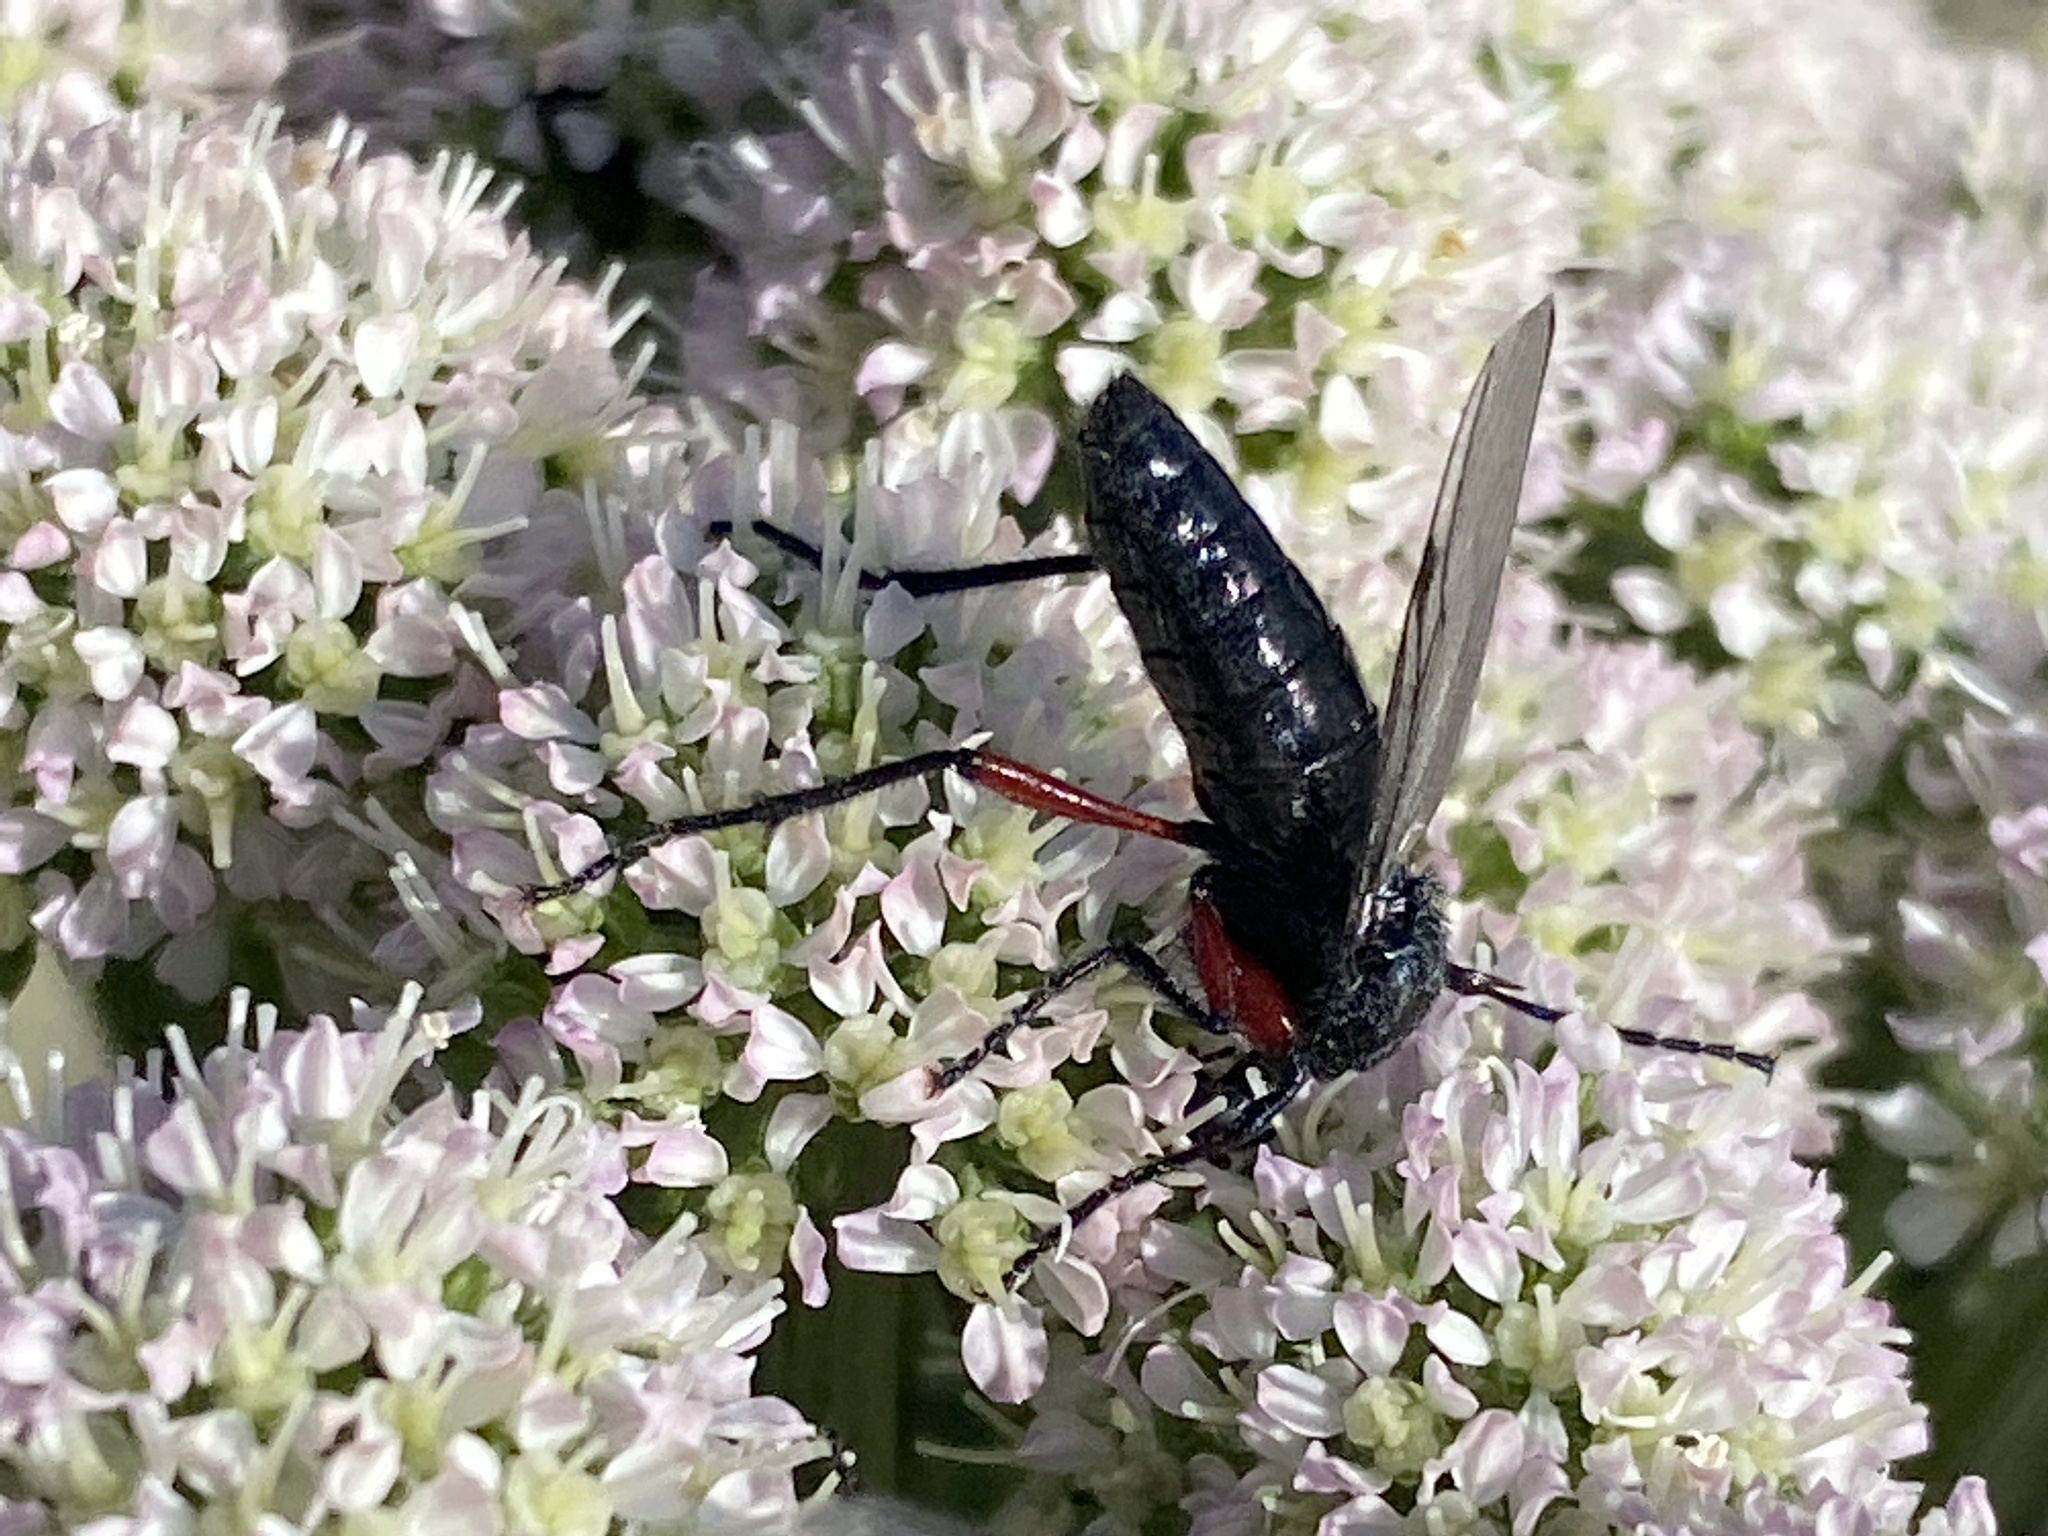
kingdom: Animalia
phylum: Arthropoda
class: Insecta
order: Diptera
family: Bibionidae
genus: Bibio
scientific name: Bibio pomonae
